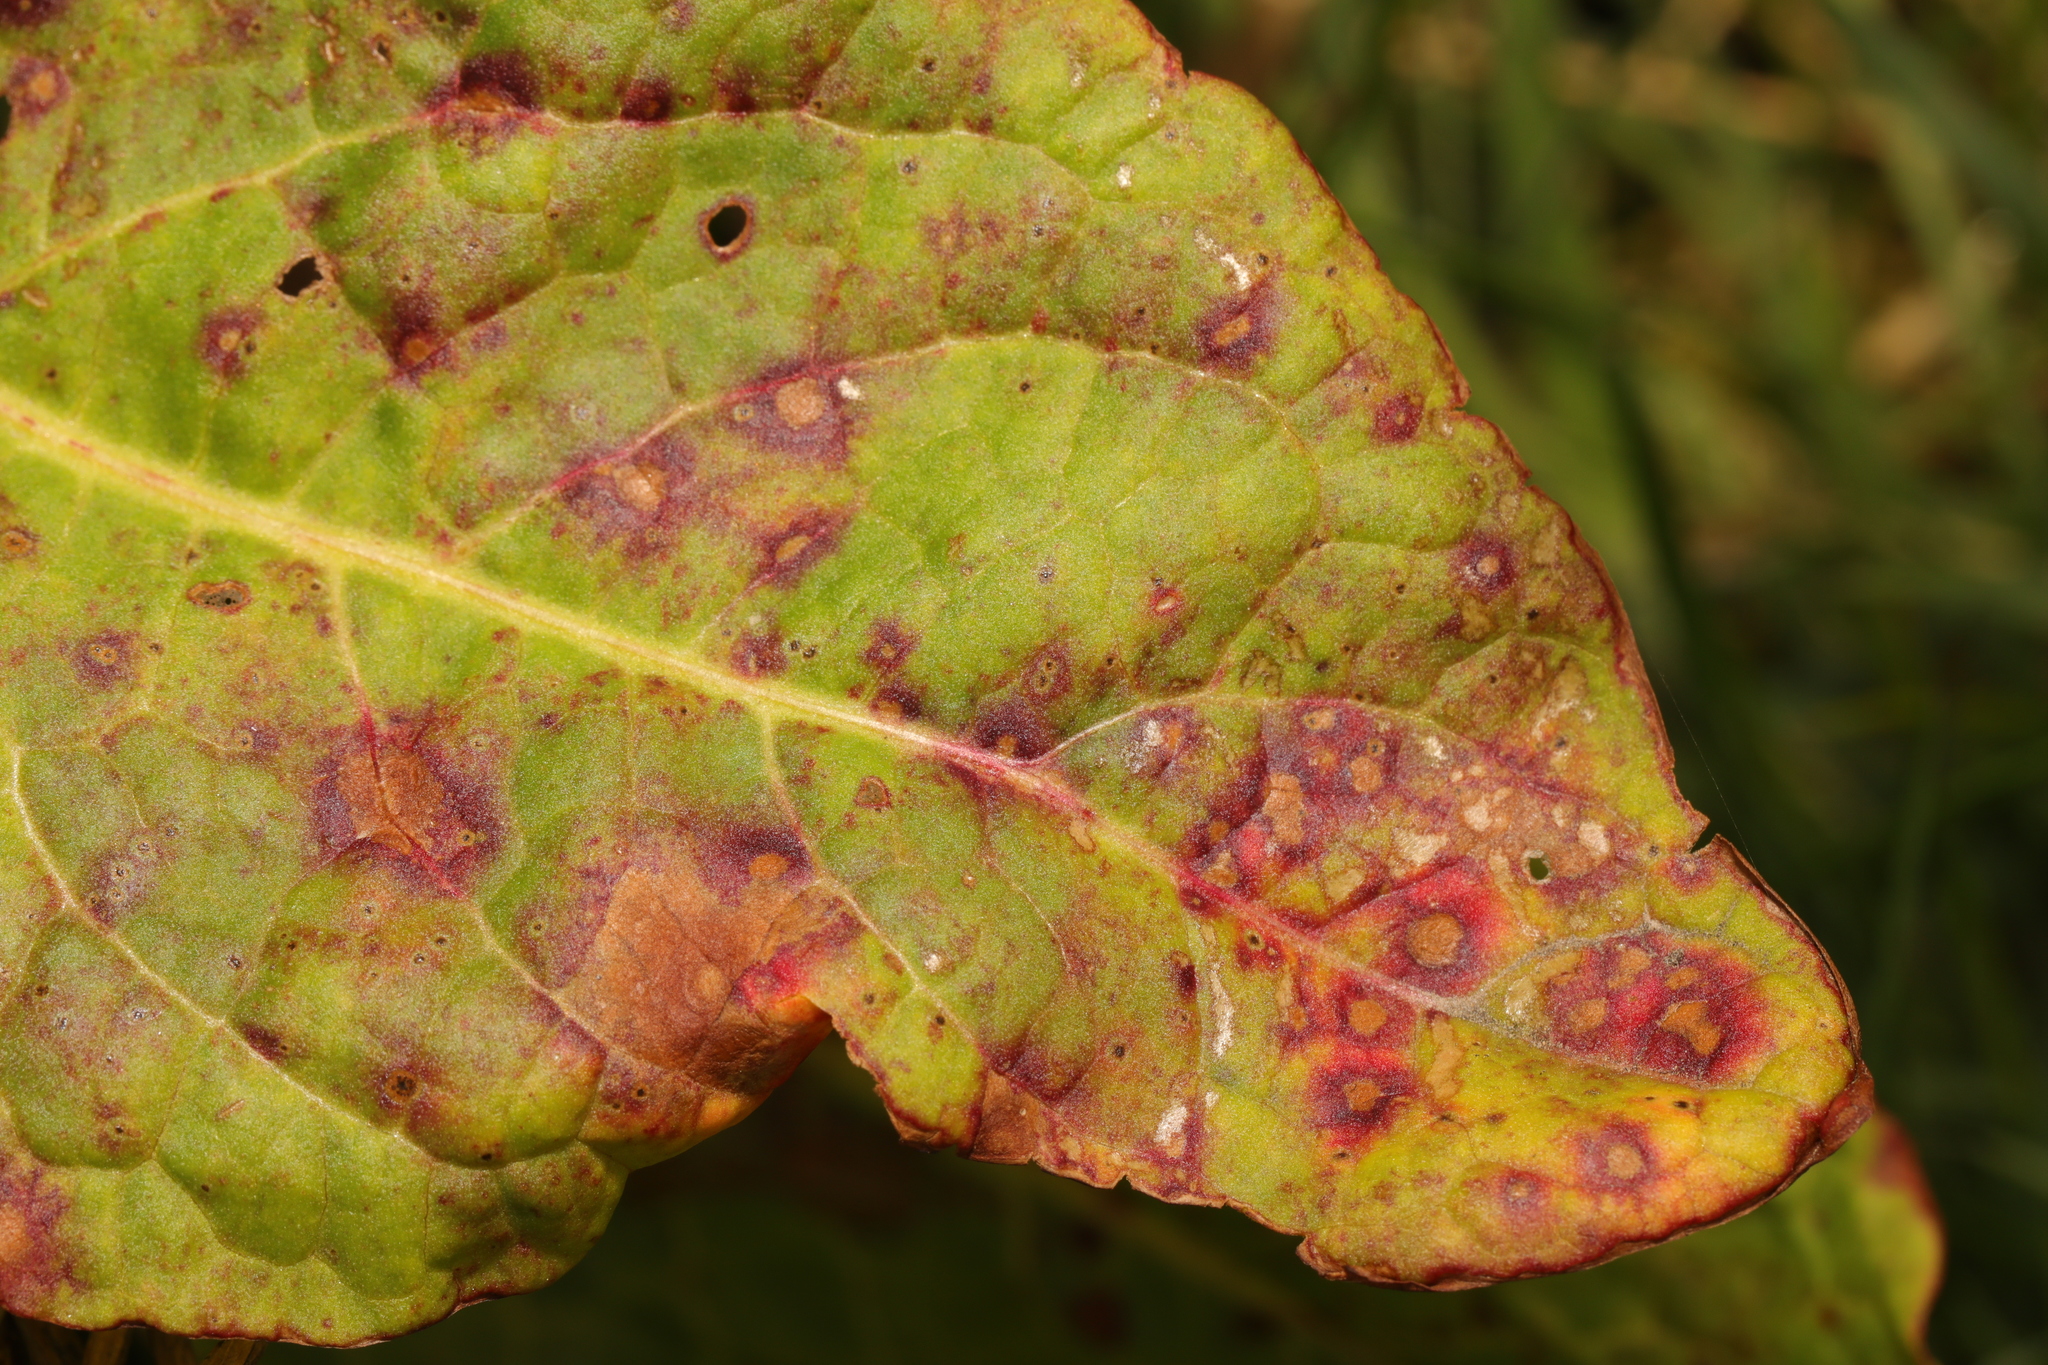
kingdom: Fungi
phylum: Ascomycota
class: Dothideomycetes
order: Mycosphaerellales
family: Mycosphaerellaceae
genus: Ramularia
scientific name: Ramularia rubella
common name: Red dock spot
